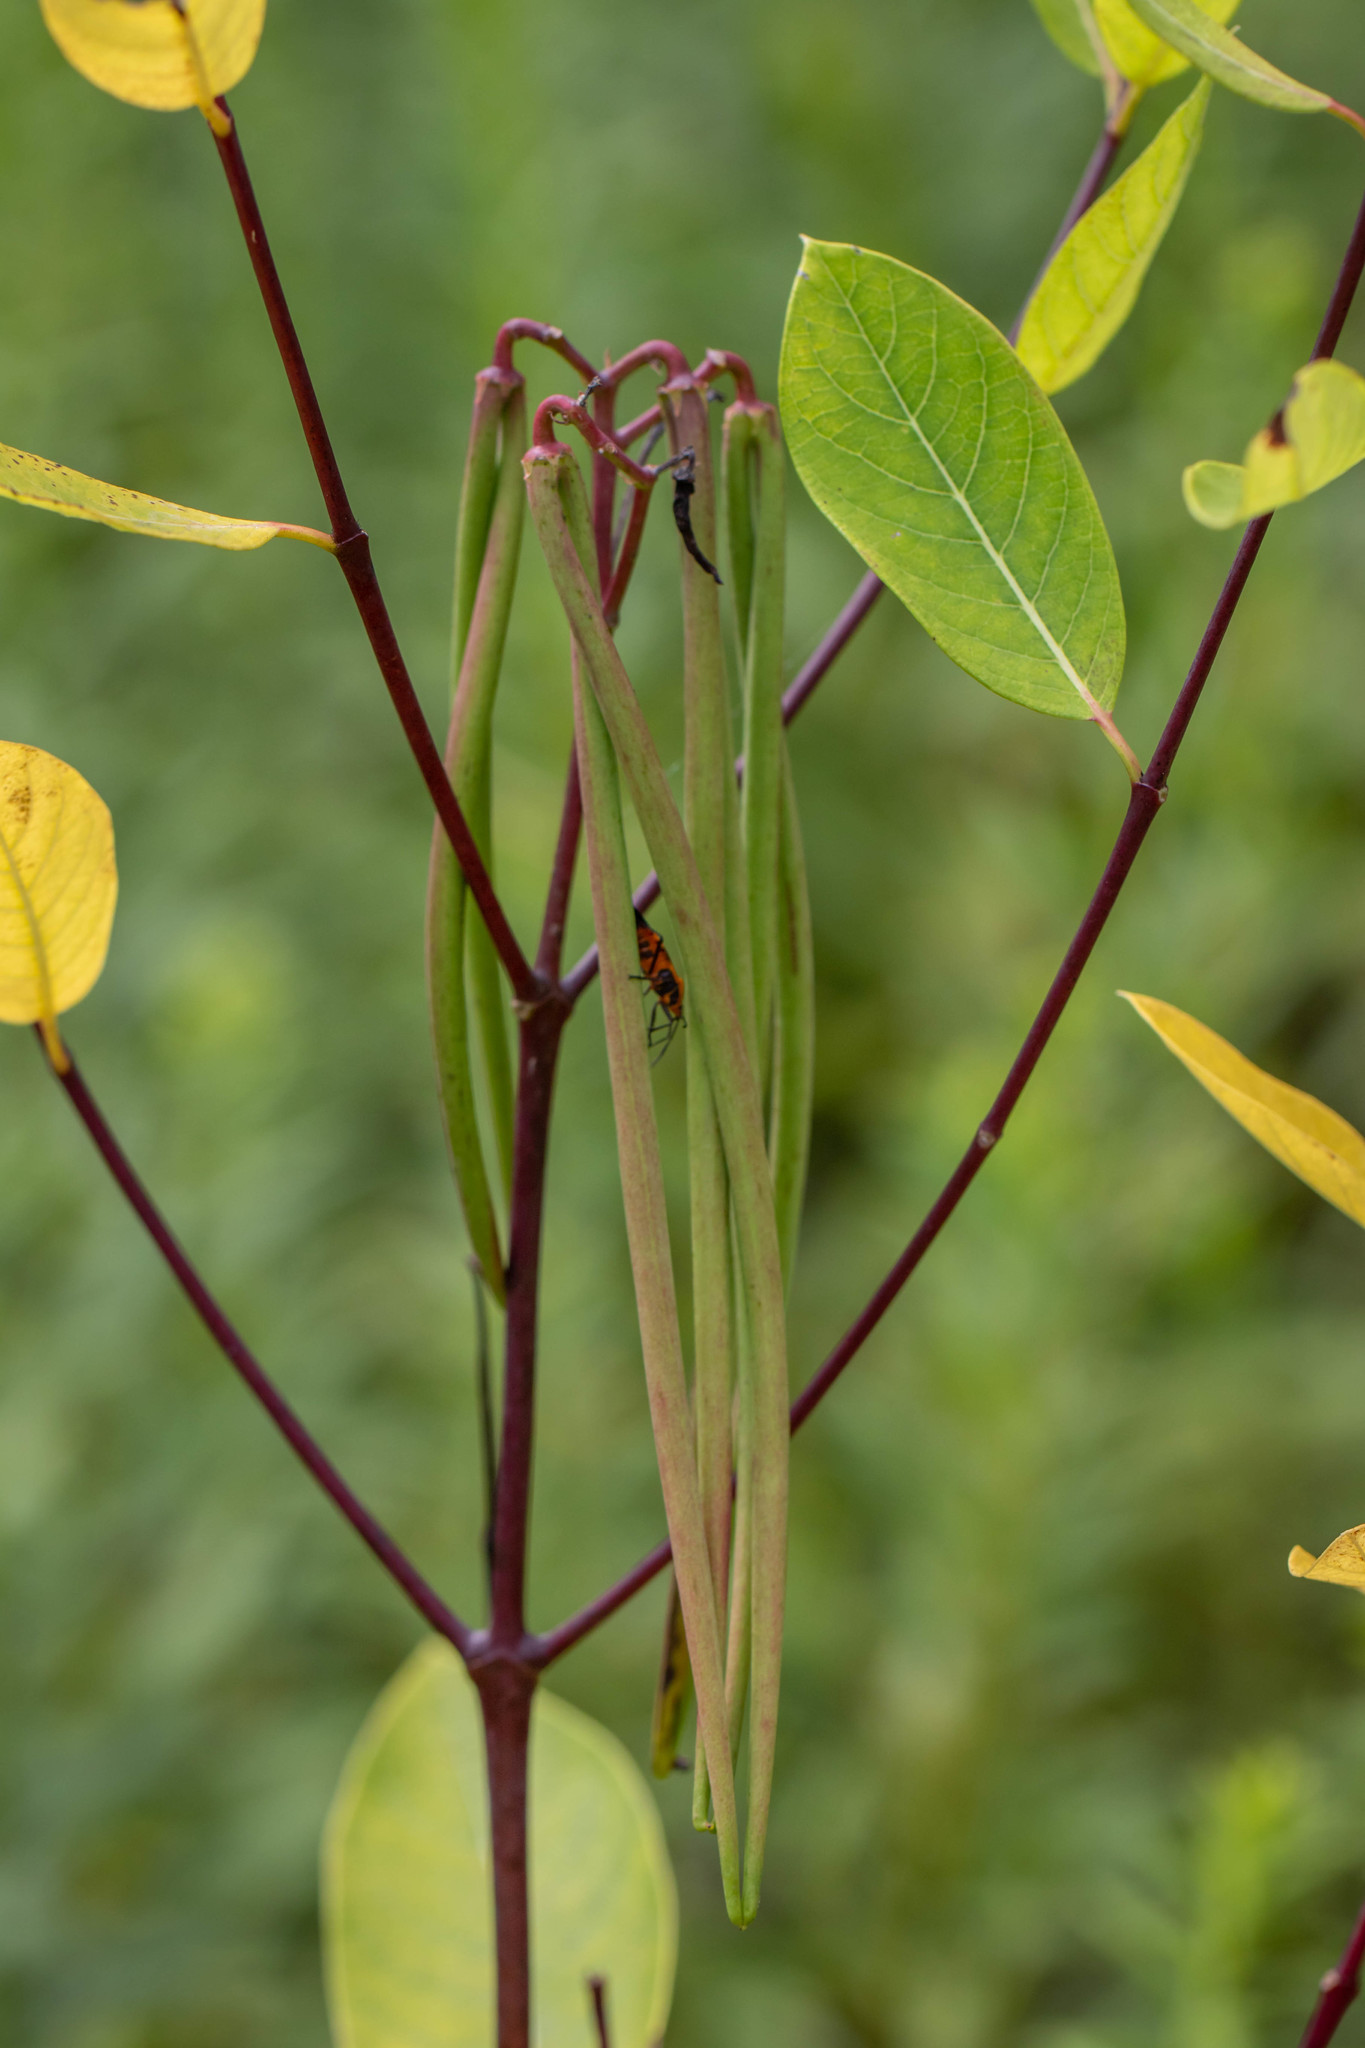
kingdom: Plantae
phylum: Tracheophyta
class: Magnoliopsida
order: Gentianales
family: Apocynaceae
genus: Apocynum
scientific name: Apocynum cannabinum
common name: Hemp dogbane
